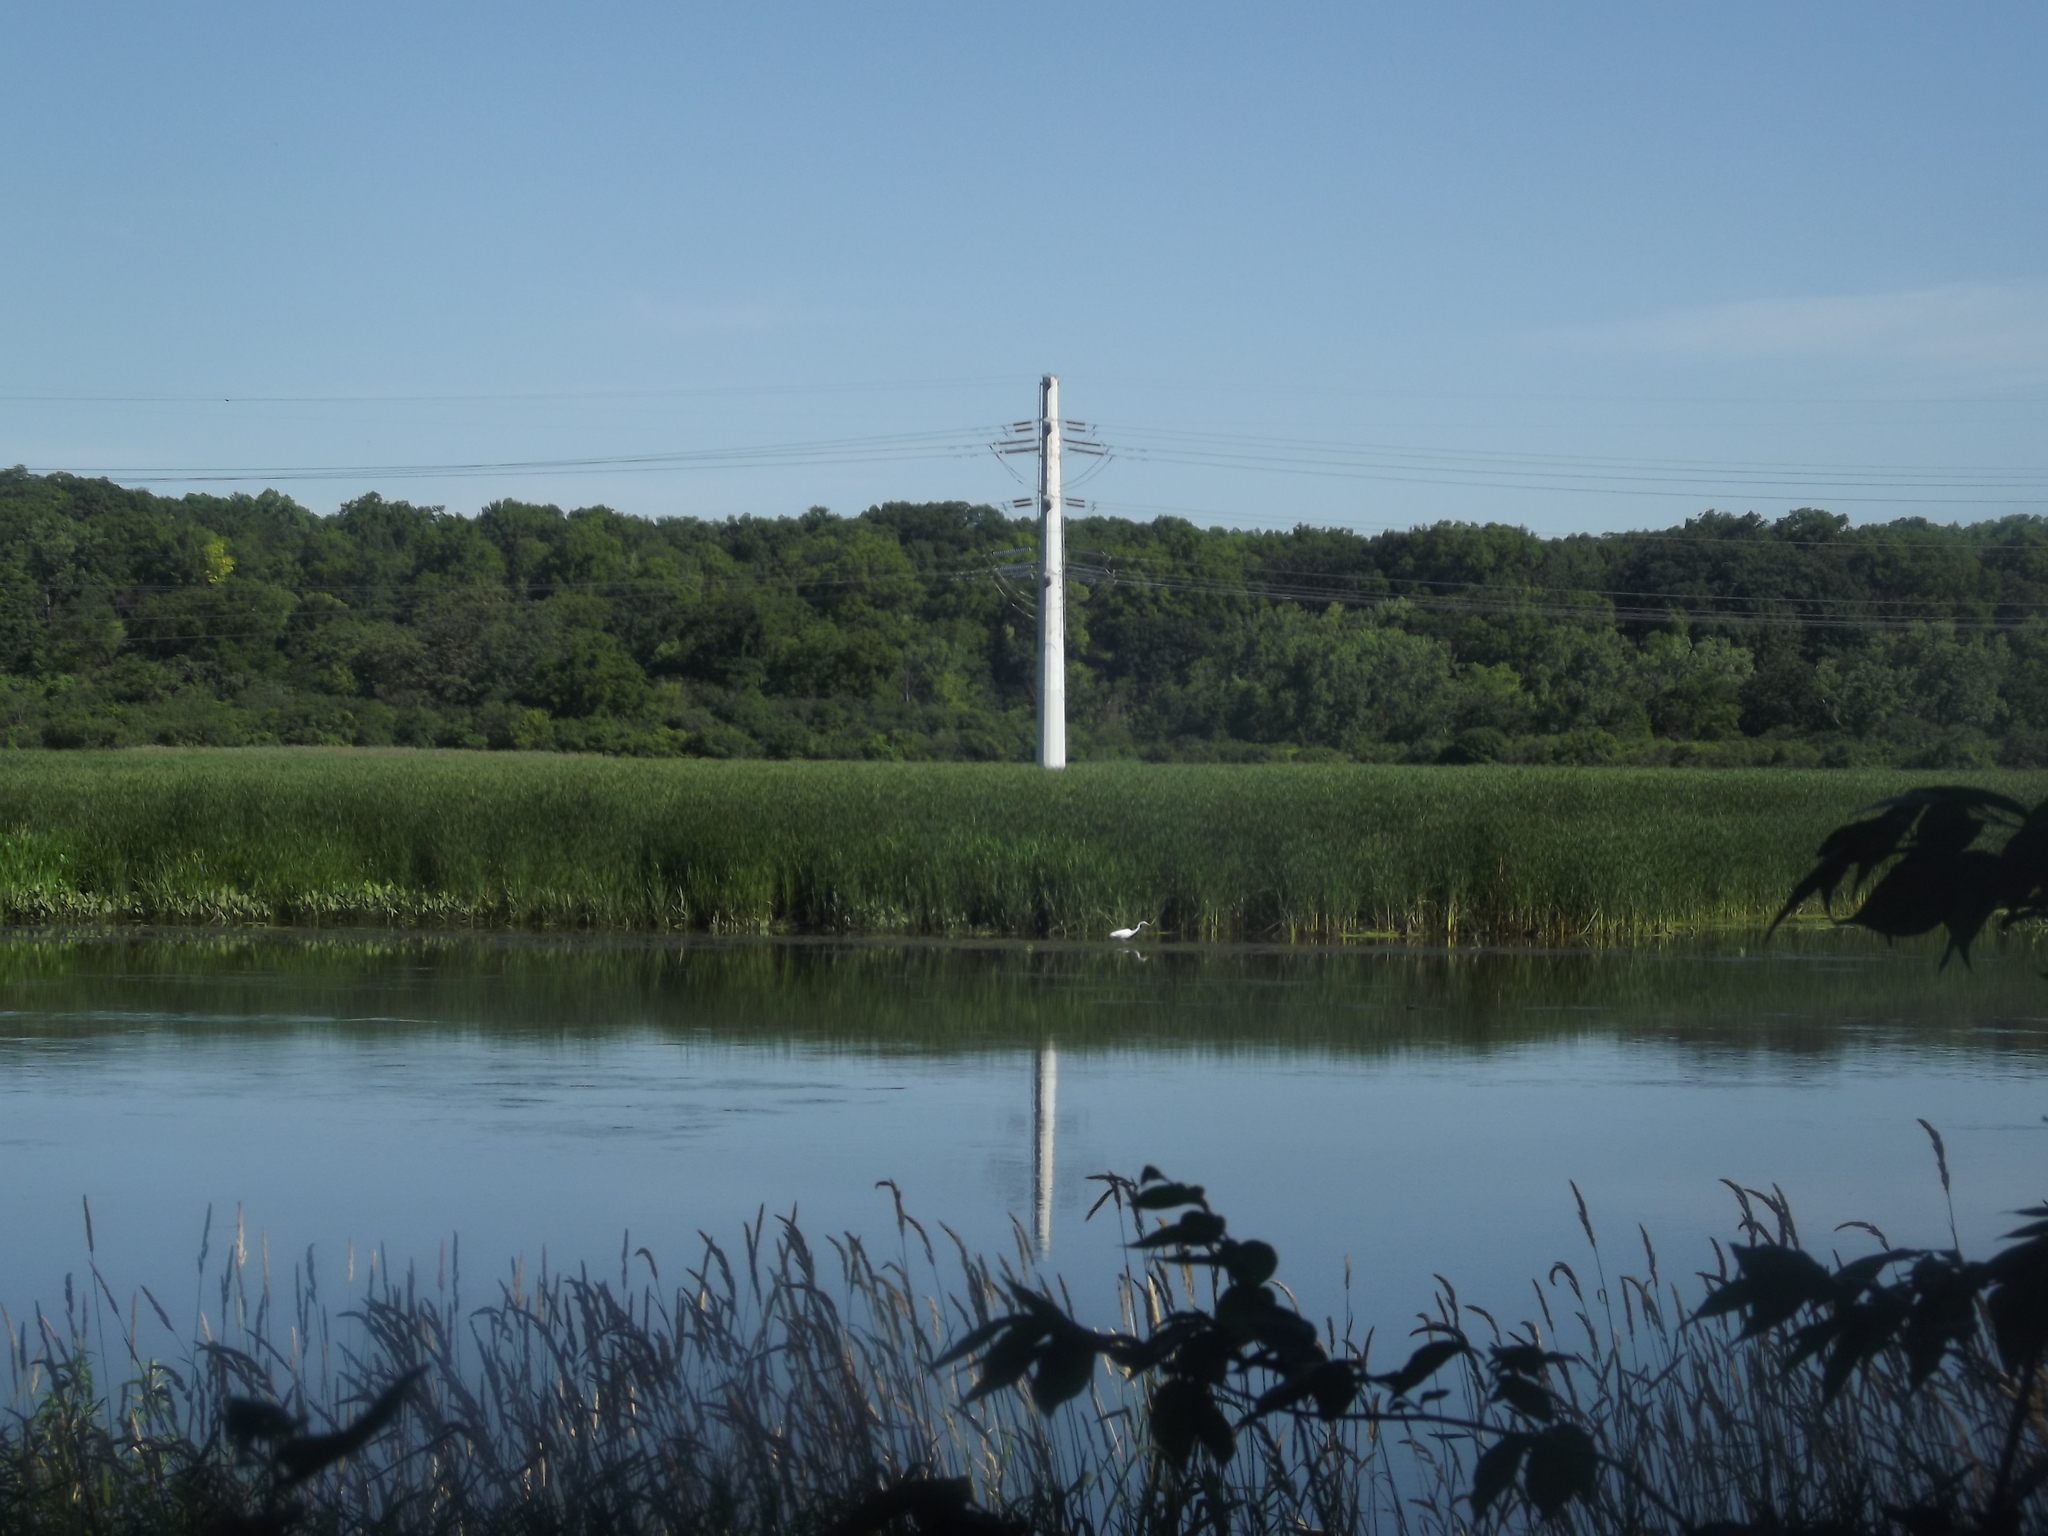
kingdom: Animalia
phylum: Chordata
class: Aves
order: Pelecaniformes
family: Ardeidae
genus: Ardea
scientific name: Ardea alba
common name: Great egret
